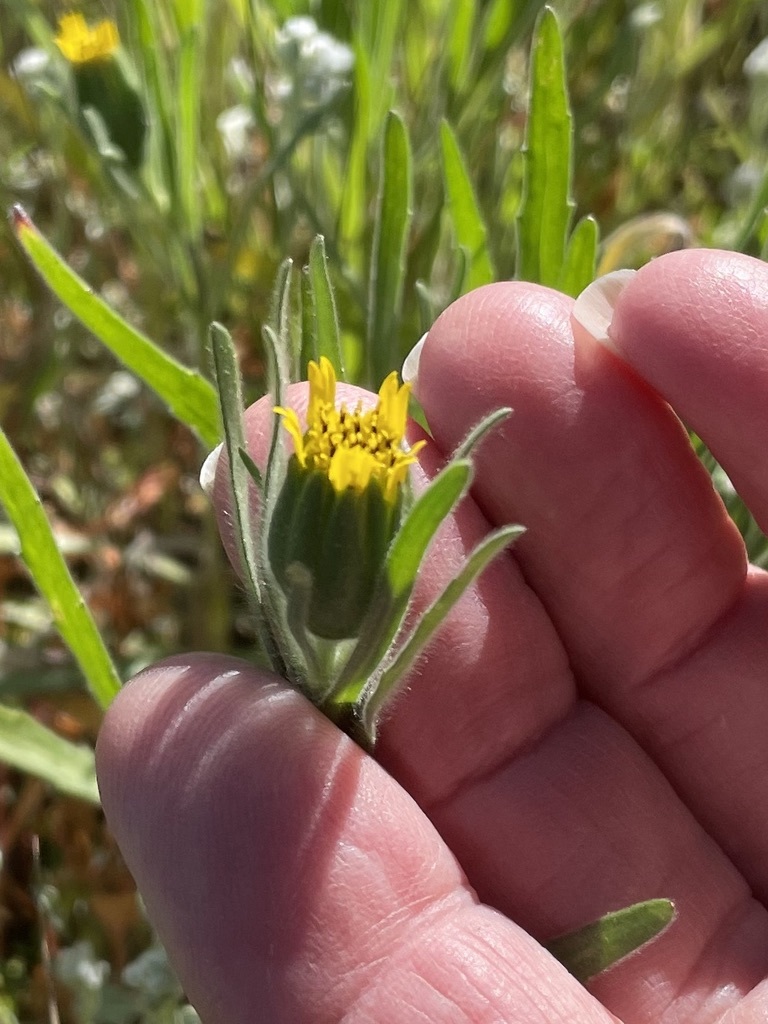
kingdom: Plantae
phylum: Tracheophyta
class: Magnoliopsida
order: Asterales
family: Asteraceae
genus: Achyrachaena
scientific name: Achyrachaena mollis
